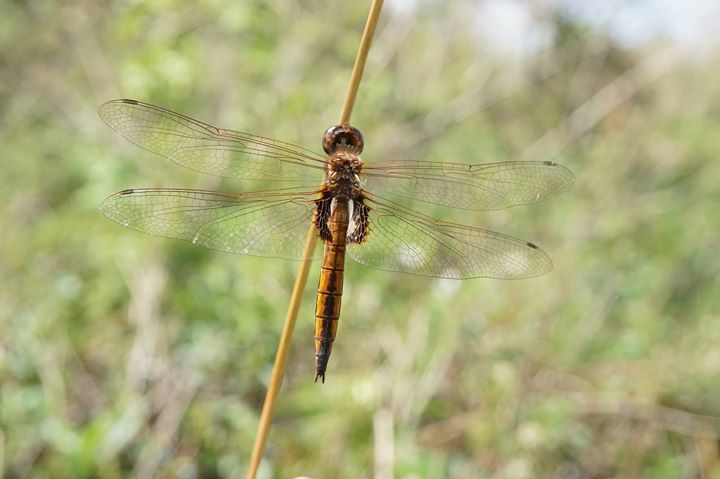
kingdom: Animalia
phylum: Arthropoda
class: Insecta
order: Odonata
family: Libellulidae
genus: Miathyria
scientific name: Miathyria marcella
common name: Hyacinth glider
